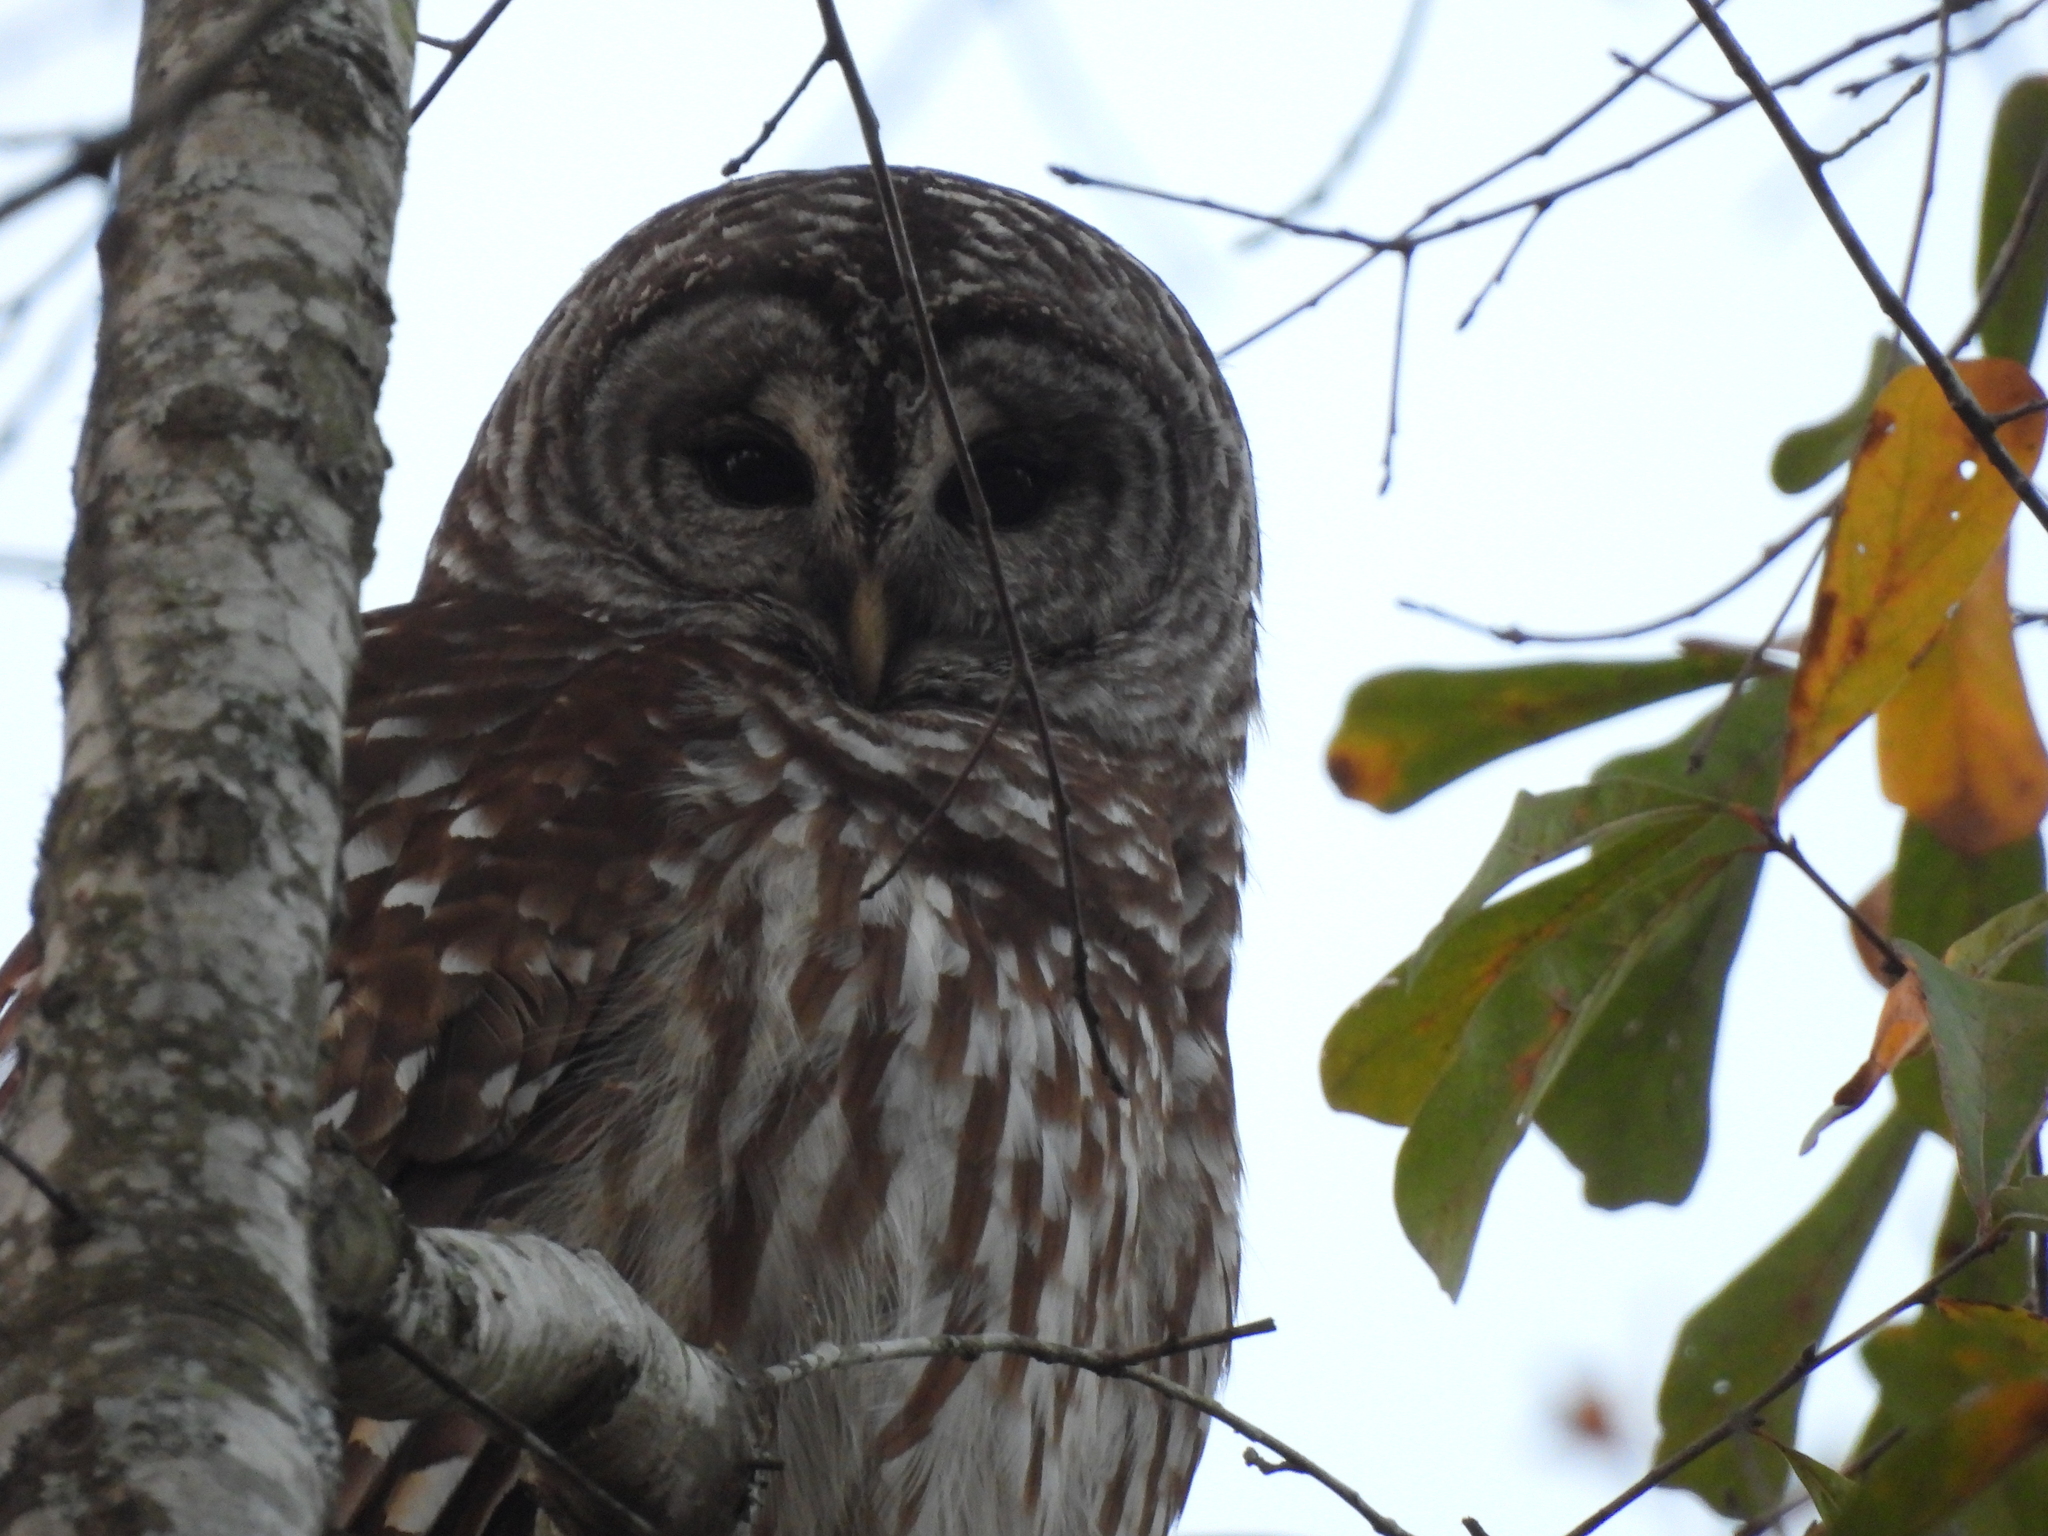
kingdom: Animalia
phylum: Chordata
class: Aves
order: Strigiformes
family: Strigidae
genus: Strix
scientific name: Strix varia
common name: Barred owl
